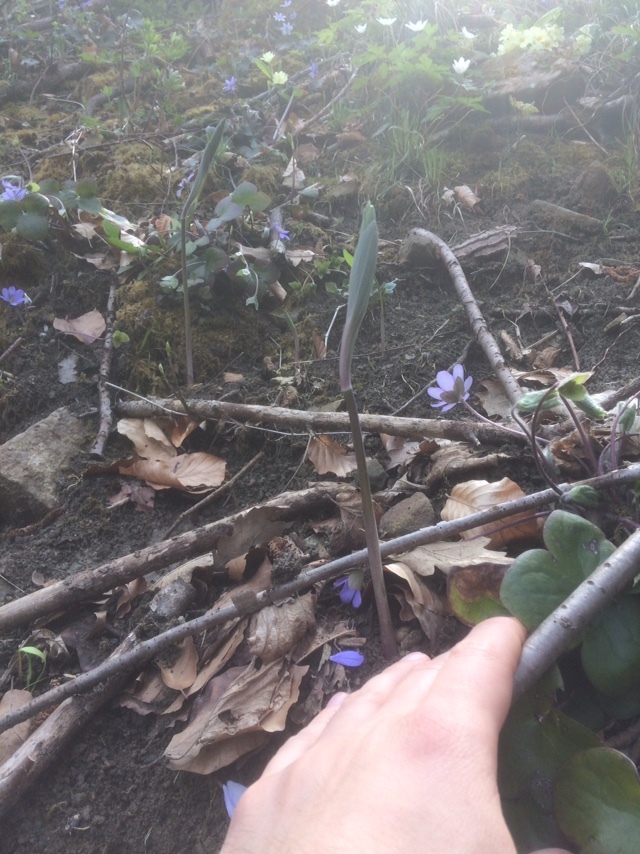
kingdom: Plantae
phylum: Tracheophyta
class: Liliopsida
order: Asparagales
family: Asparagaceae
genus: Polygonatum
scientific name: Polygonatum
